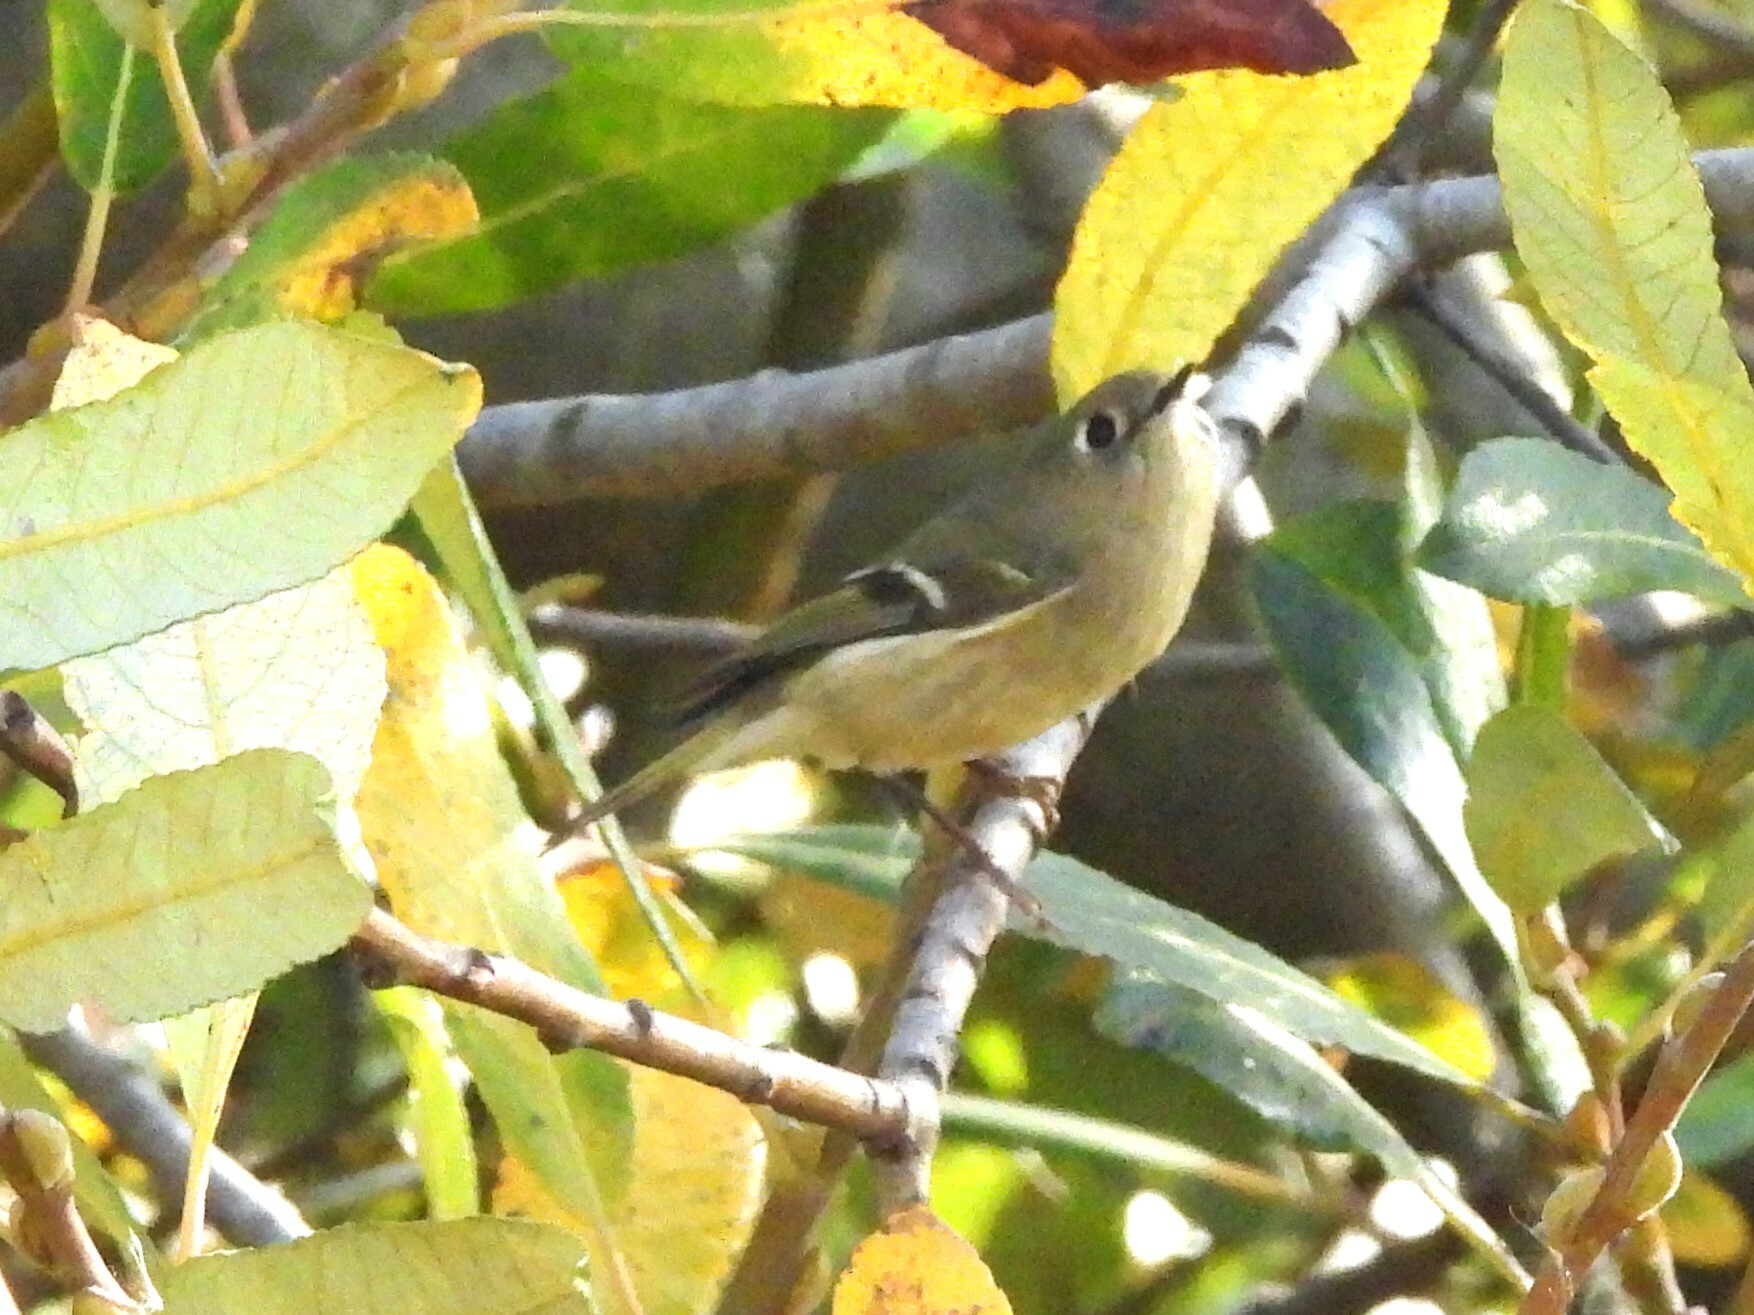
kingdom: Animalia
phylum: Chordata
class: Aves
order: Passeriformes
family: Regulidae
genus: Regulus
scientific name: Regulus calendula
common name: Ruby-crowned kinglet
